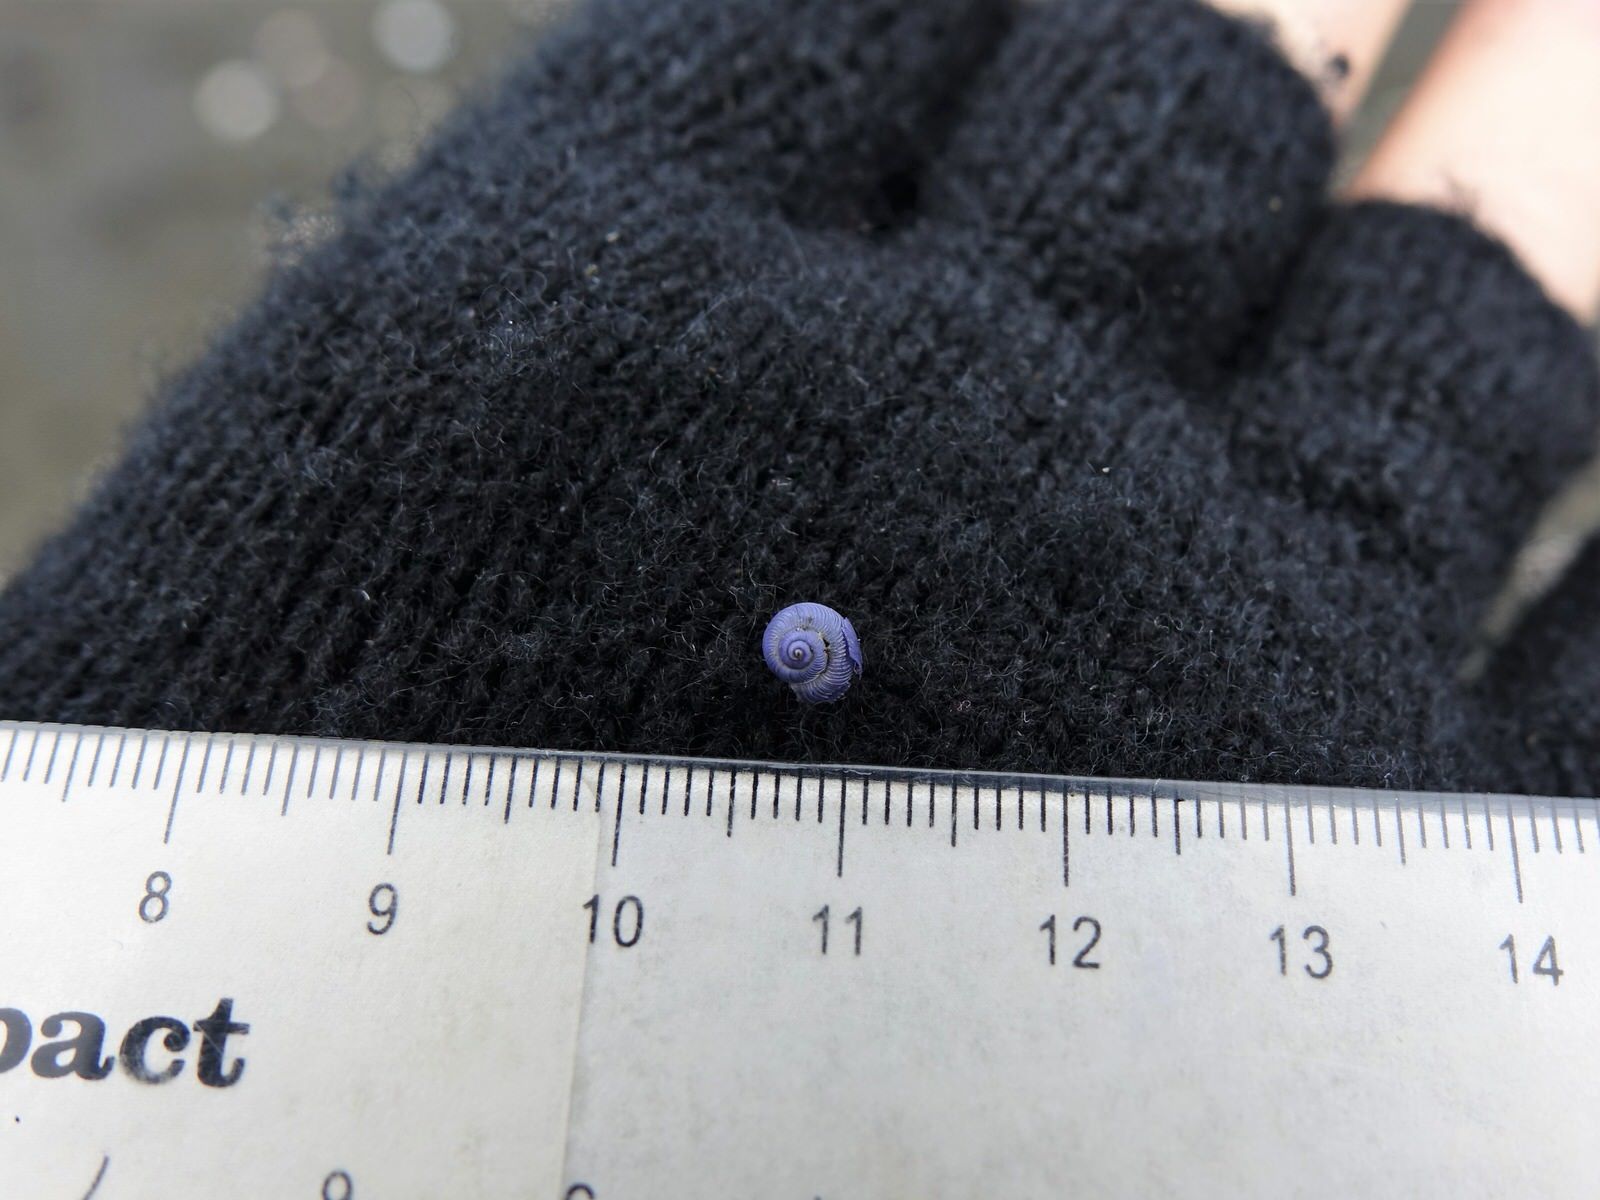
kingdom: Animalia
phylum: Mollusca
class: Gastropoda
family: Epitoniidae
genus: Janthina
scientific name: Janthina exigua
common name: Dwarf janthina
